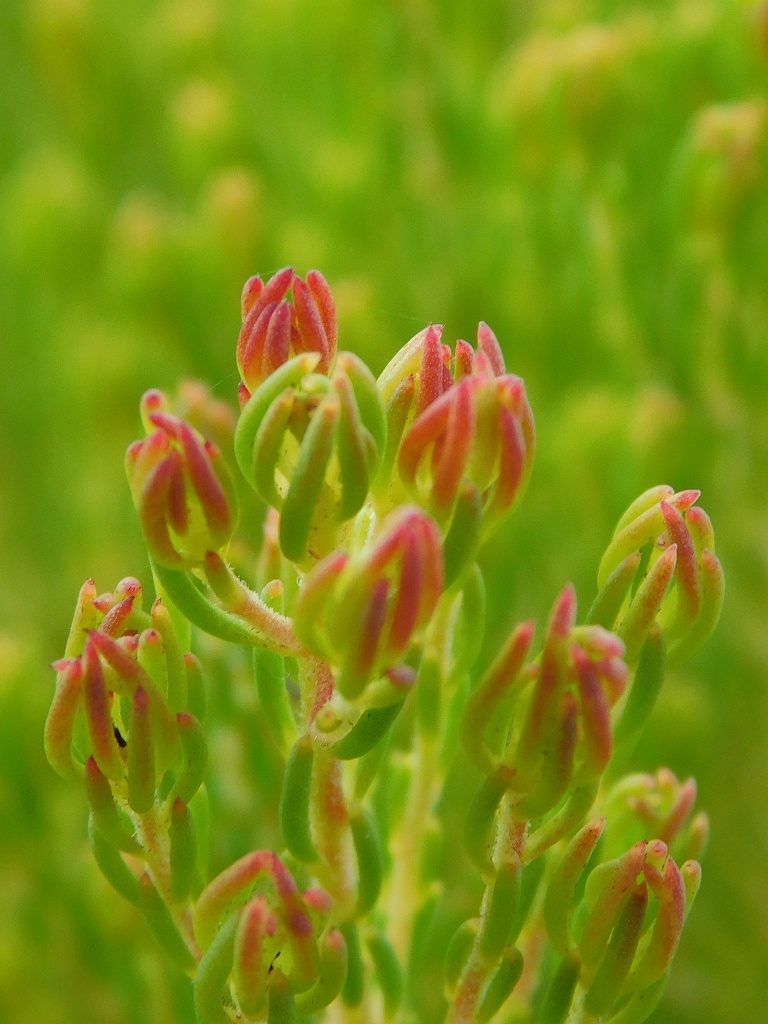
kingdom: Plantae
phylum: Tracheophyta
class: Magnoliopsida
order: Proteales
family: Proteaceae
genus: Leucadendron
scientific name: Leucadendron teretifolium
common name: Needle-leaf conebush
